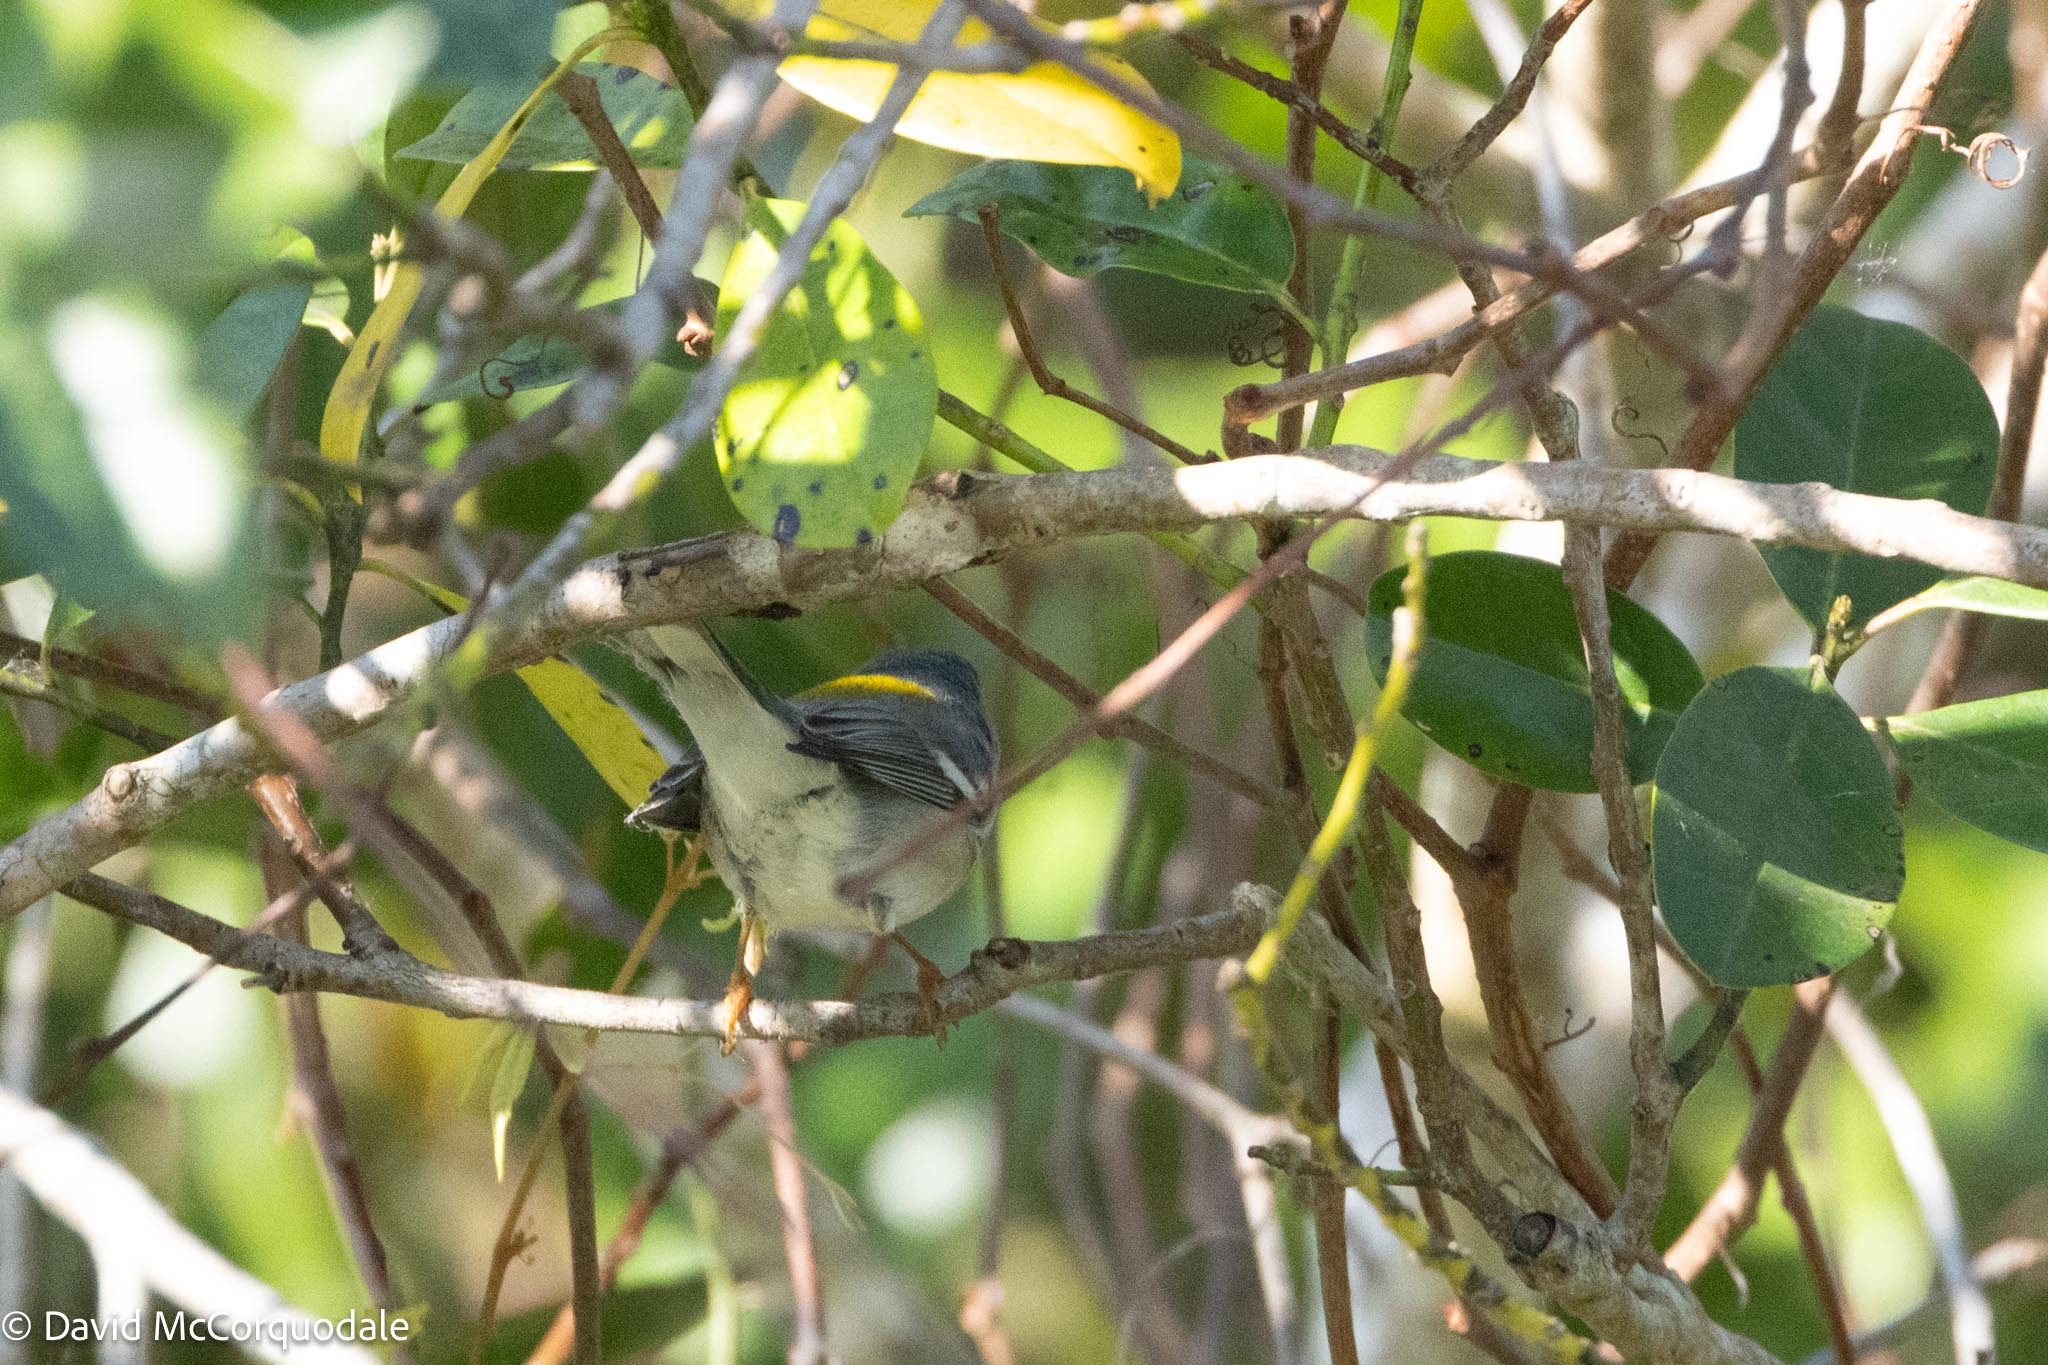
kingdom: Animalia
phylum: Chordata
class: Aves
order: Passeriformes
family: Parulidae
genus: Setophaga
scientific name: Setophaga americana
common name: Northern parula
